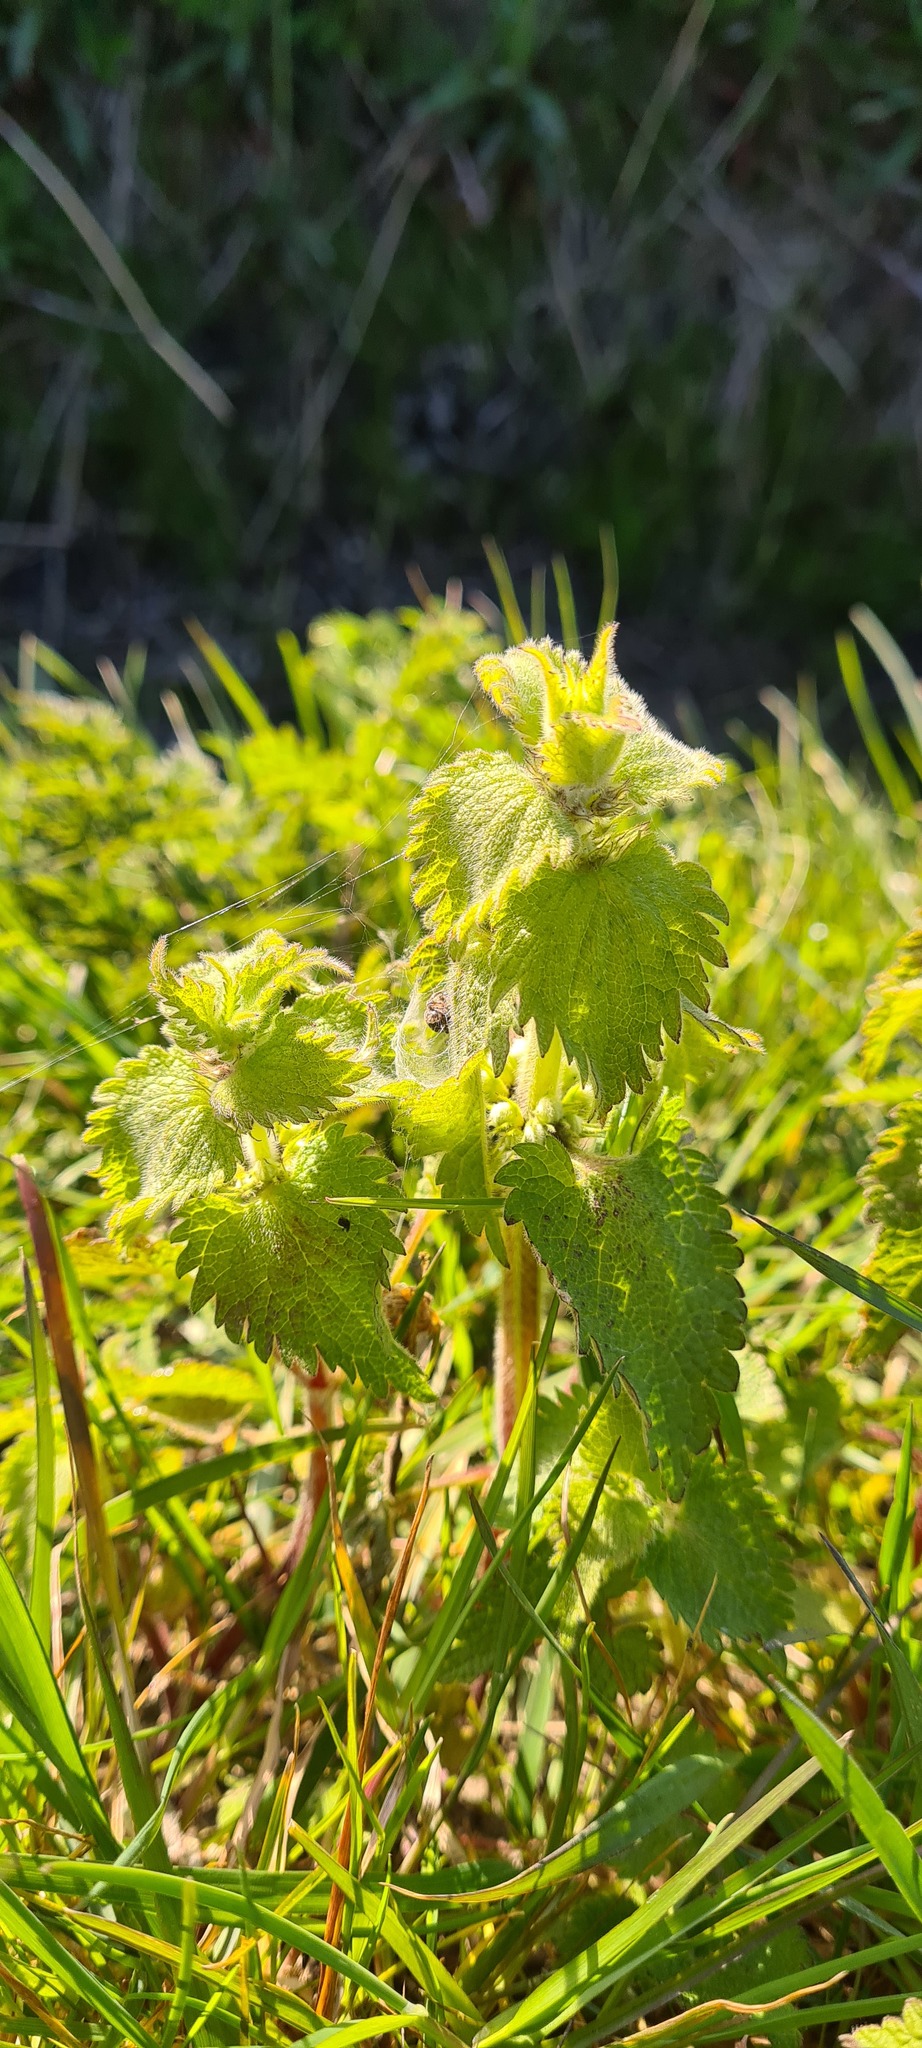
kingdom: Plantae
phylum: Tracheophyta
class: Magnoliopsida
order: Lamiales
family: Lamiaceae
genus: Lamium
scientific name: Lamium album
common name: White dead-nettle
